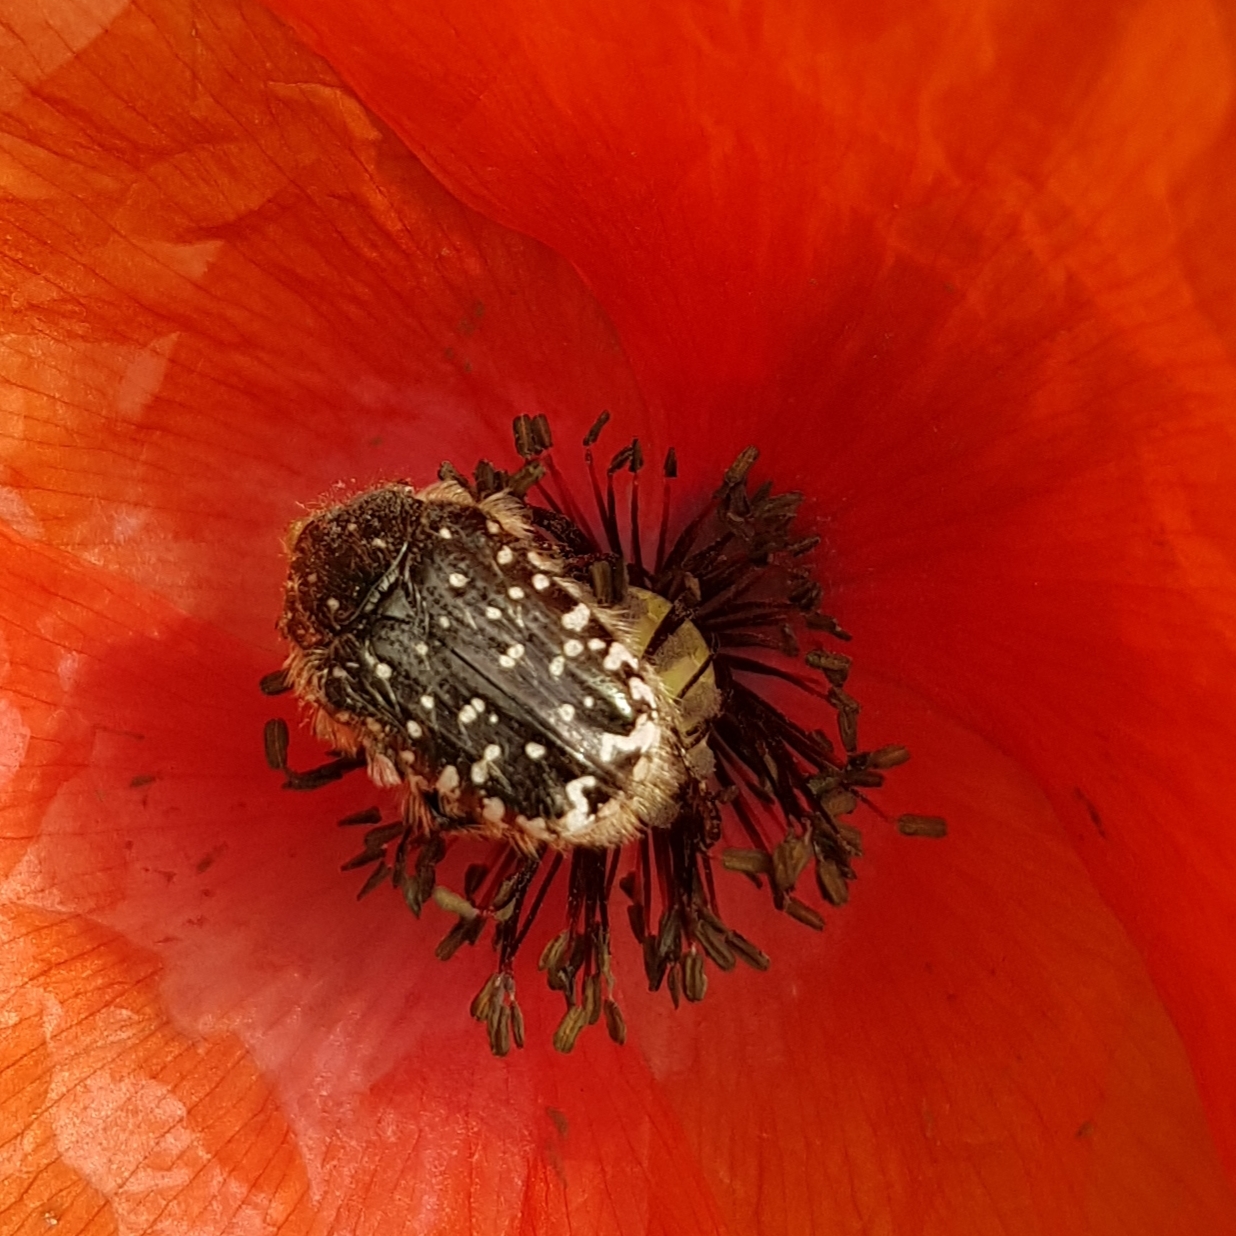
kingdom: Animalia
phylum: Arthropoda
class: Insecta
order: Coleoptera
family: Scarabaeidae
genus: Oxythyrea
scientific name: Oxythyrea funesta
